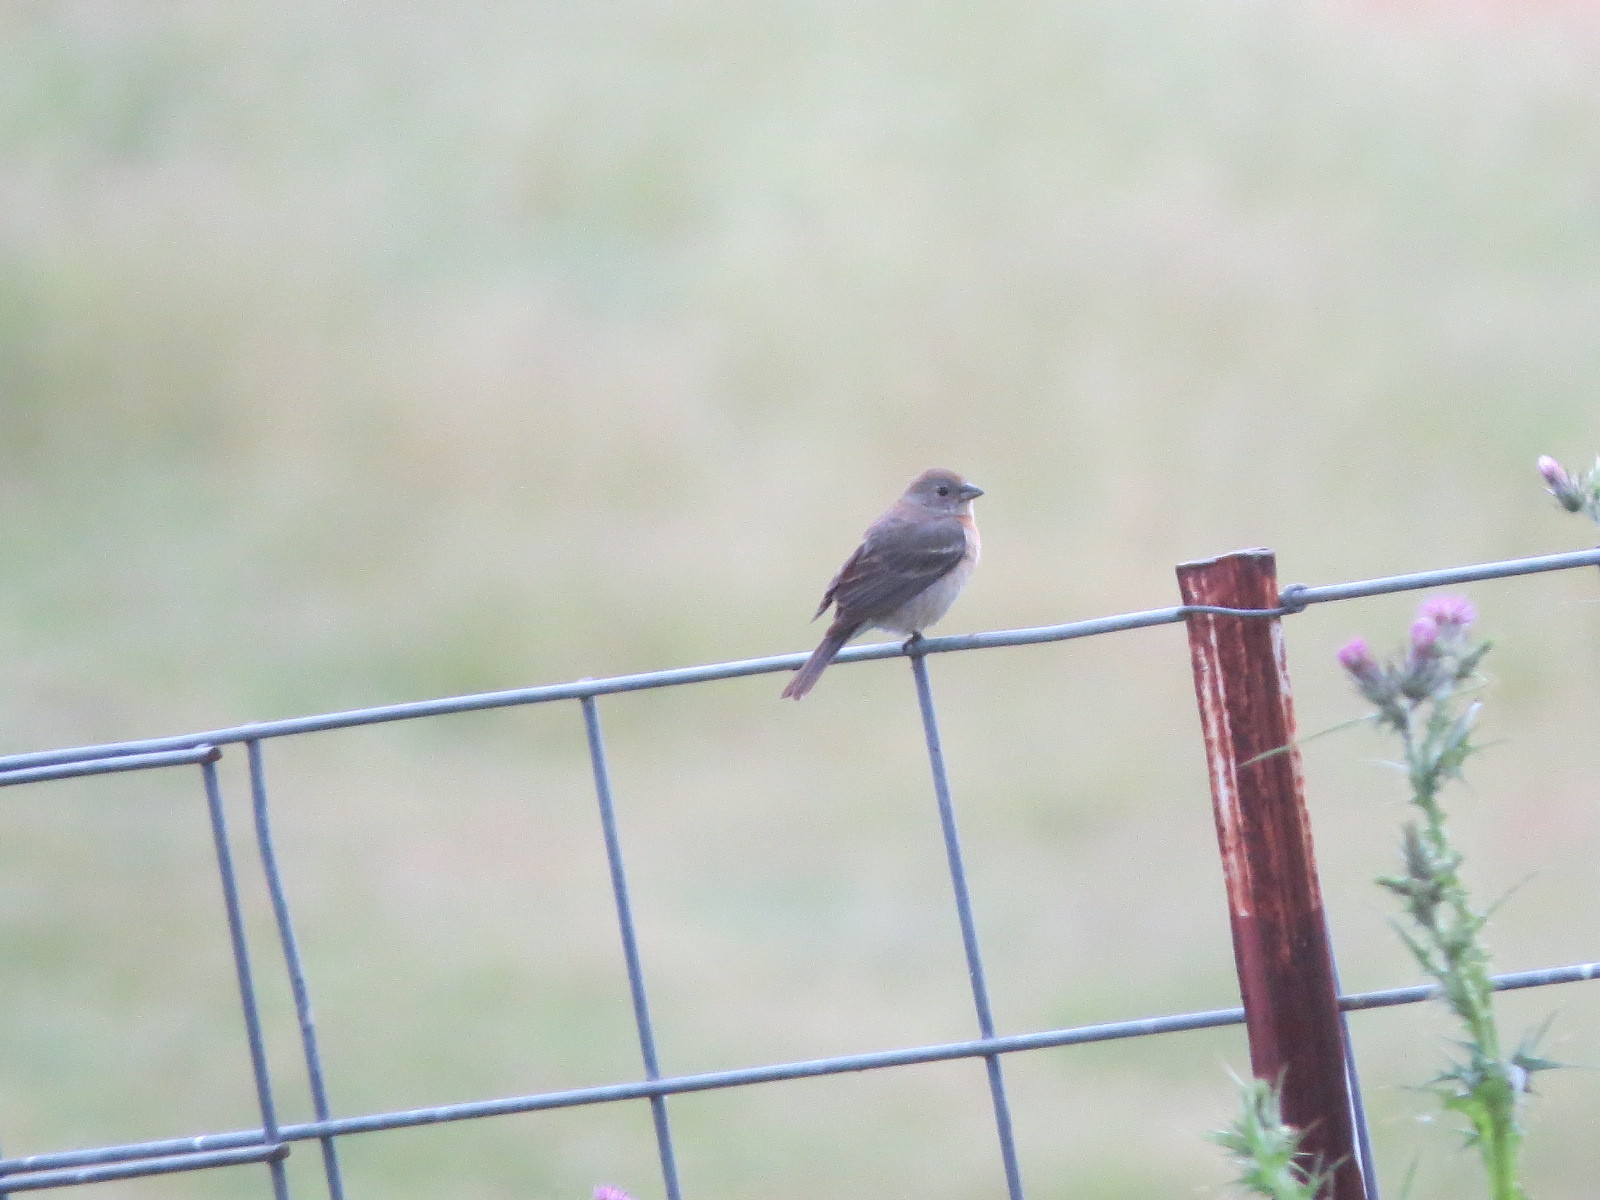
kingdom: Animalia
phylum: Chordata
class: Aves
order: Passeriformes
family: Cardinalidae
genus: Passerina
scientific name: Passerina amoena
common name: Lazuli bunting
